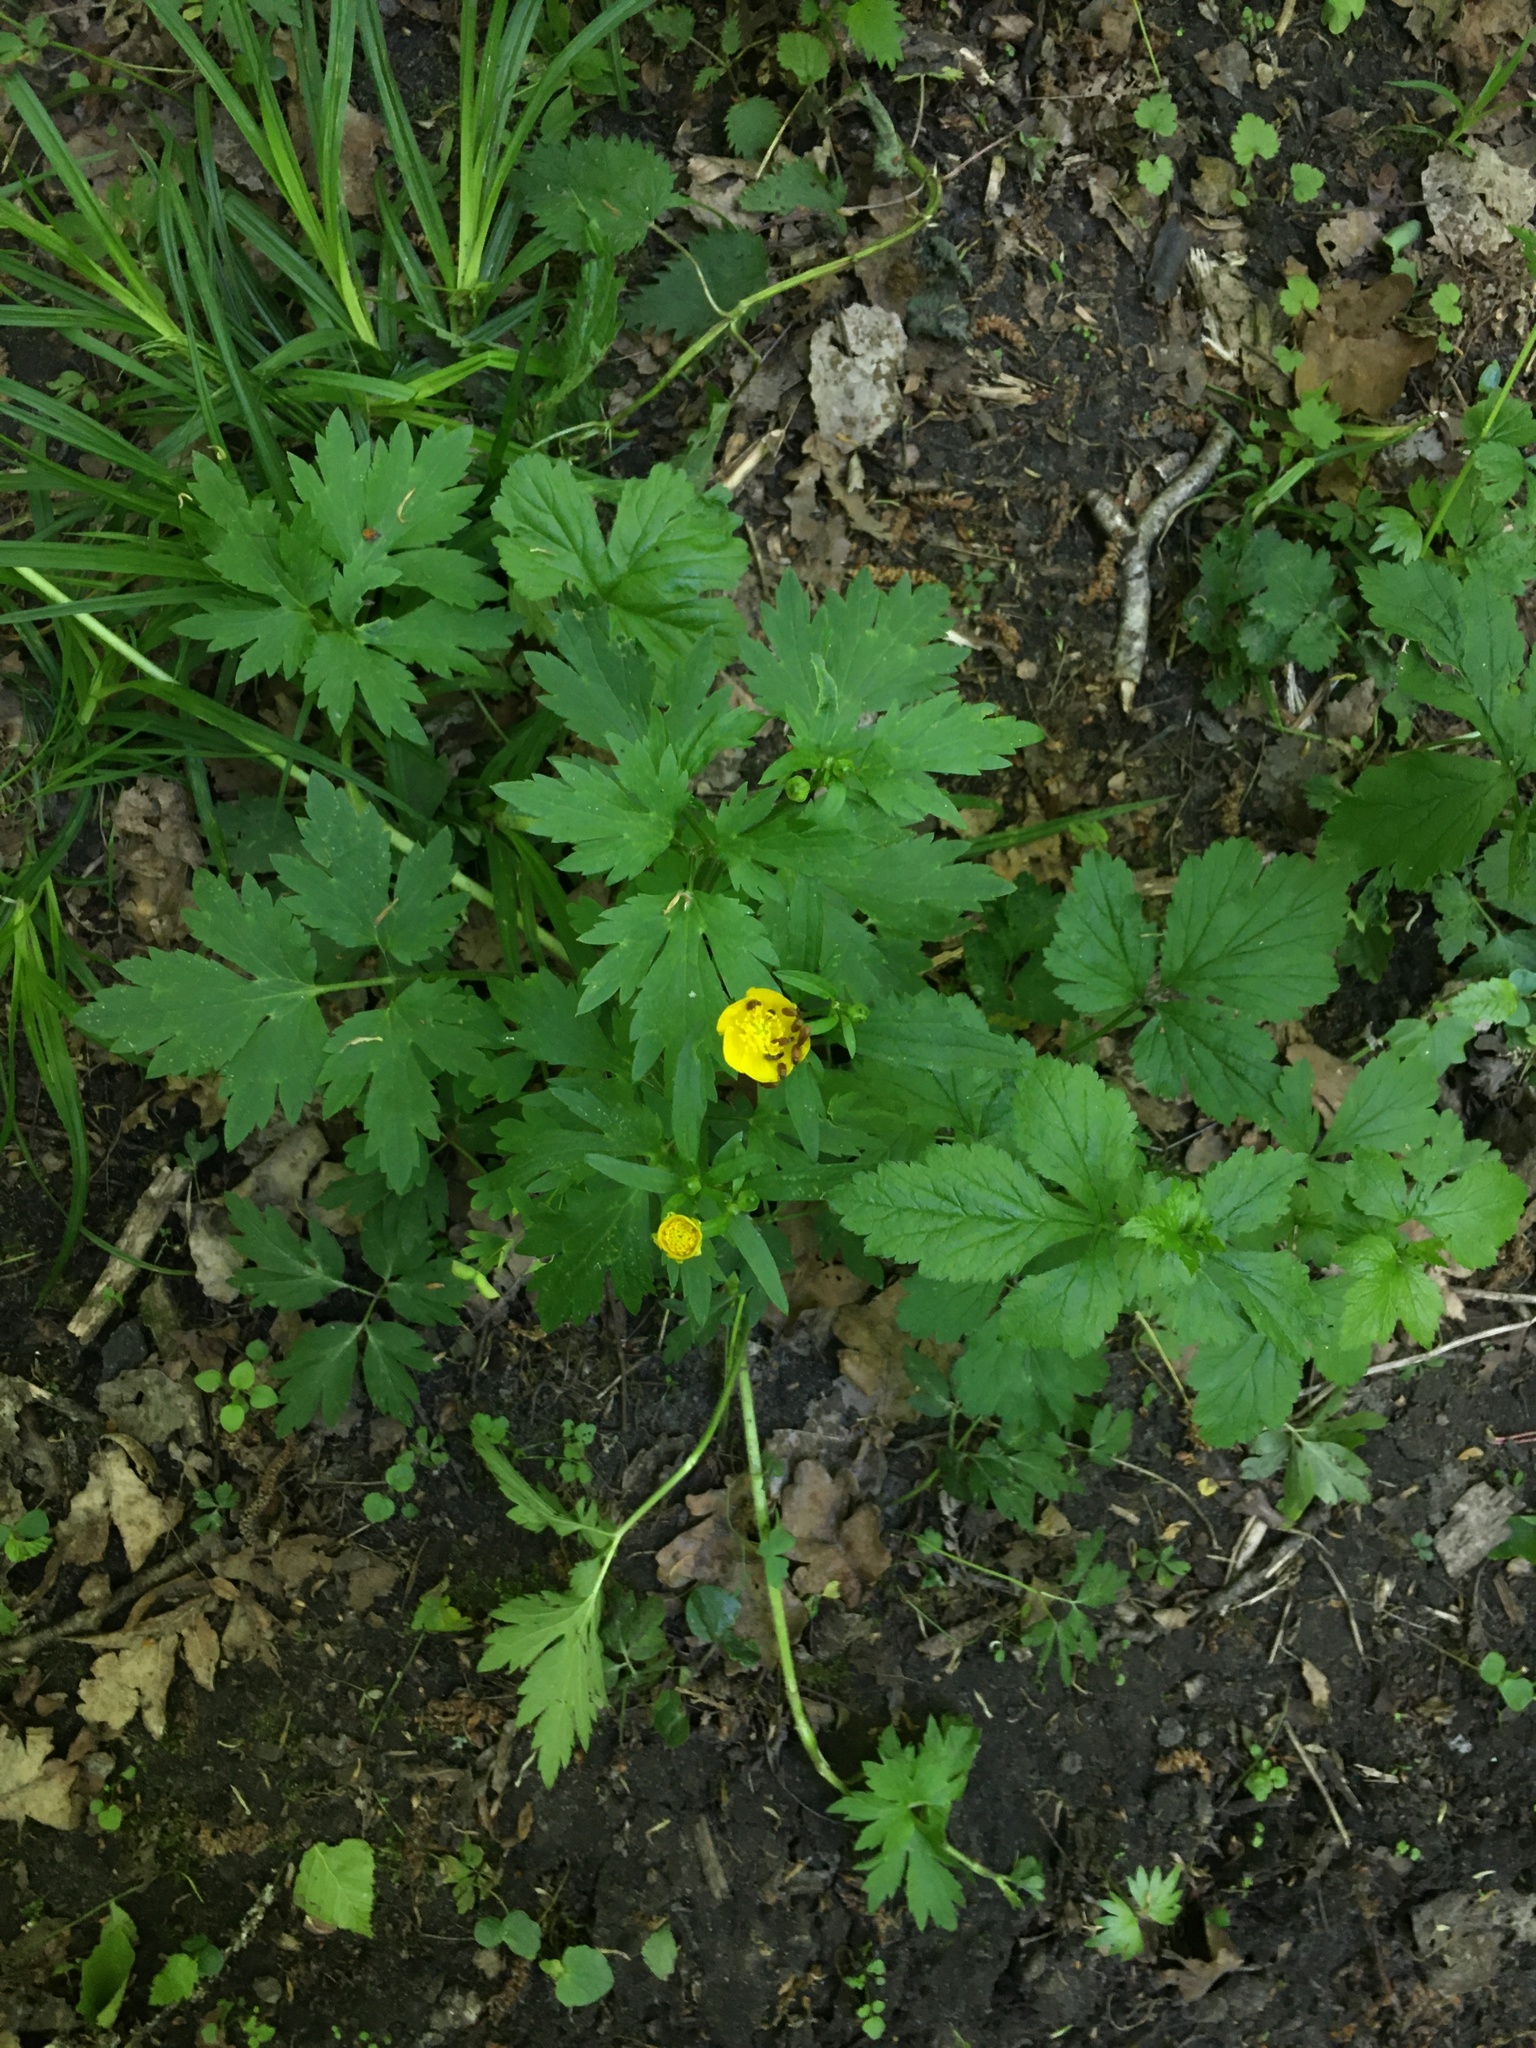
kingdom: Plantae
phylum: Tracheophyta
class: Magnoliopsida
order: Ranunculales
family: Ranunculaceae
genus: Ranunculus
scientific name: Ranunculus repens
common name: Creeping buttercup
